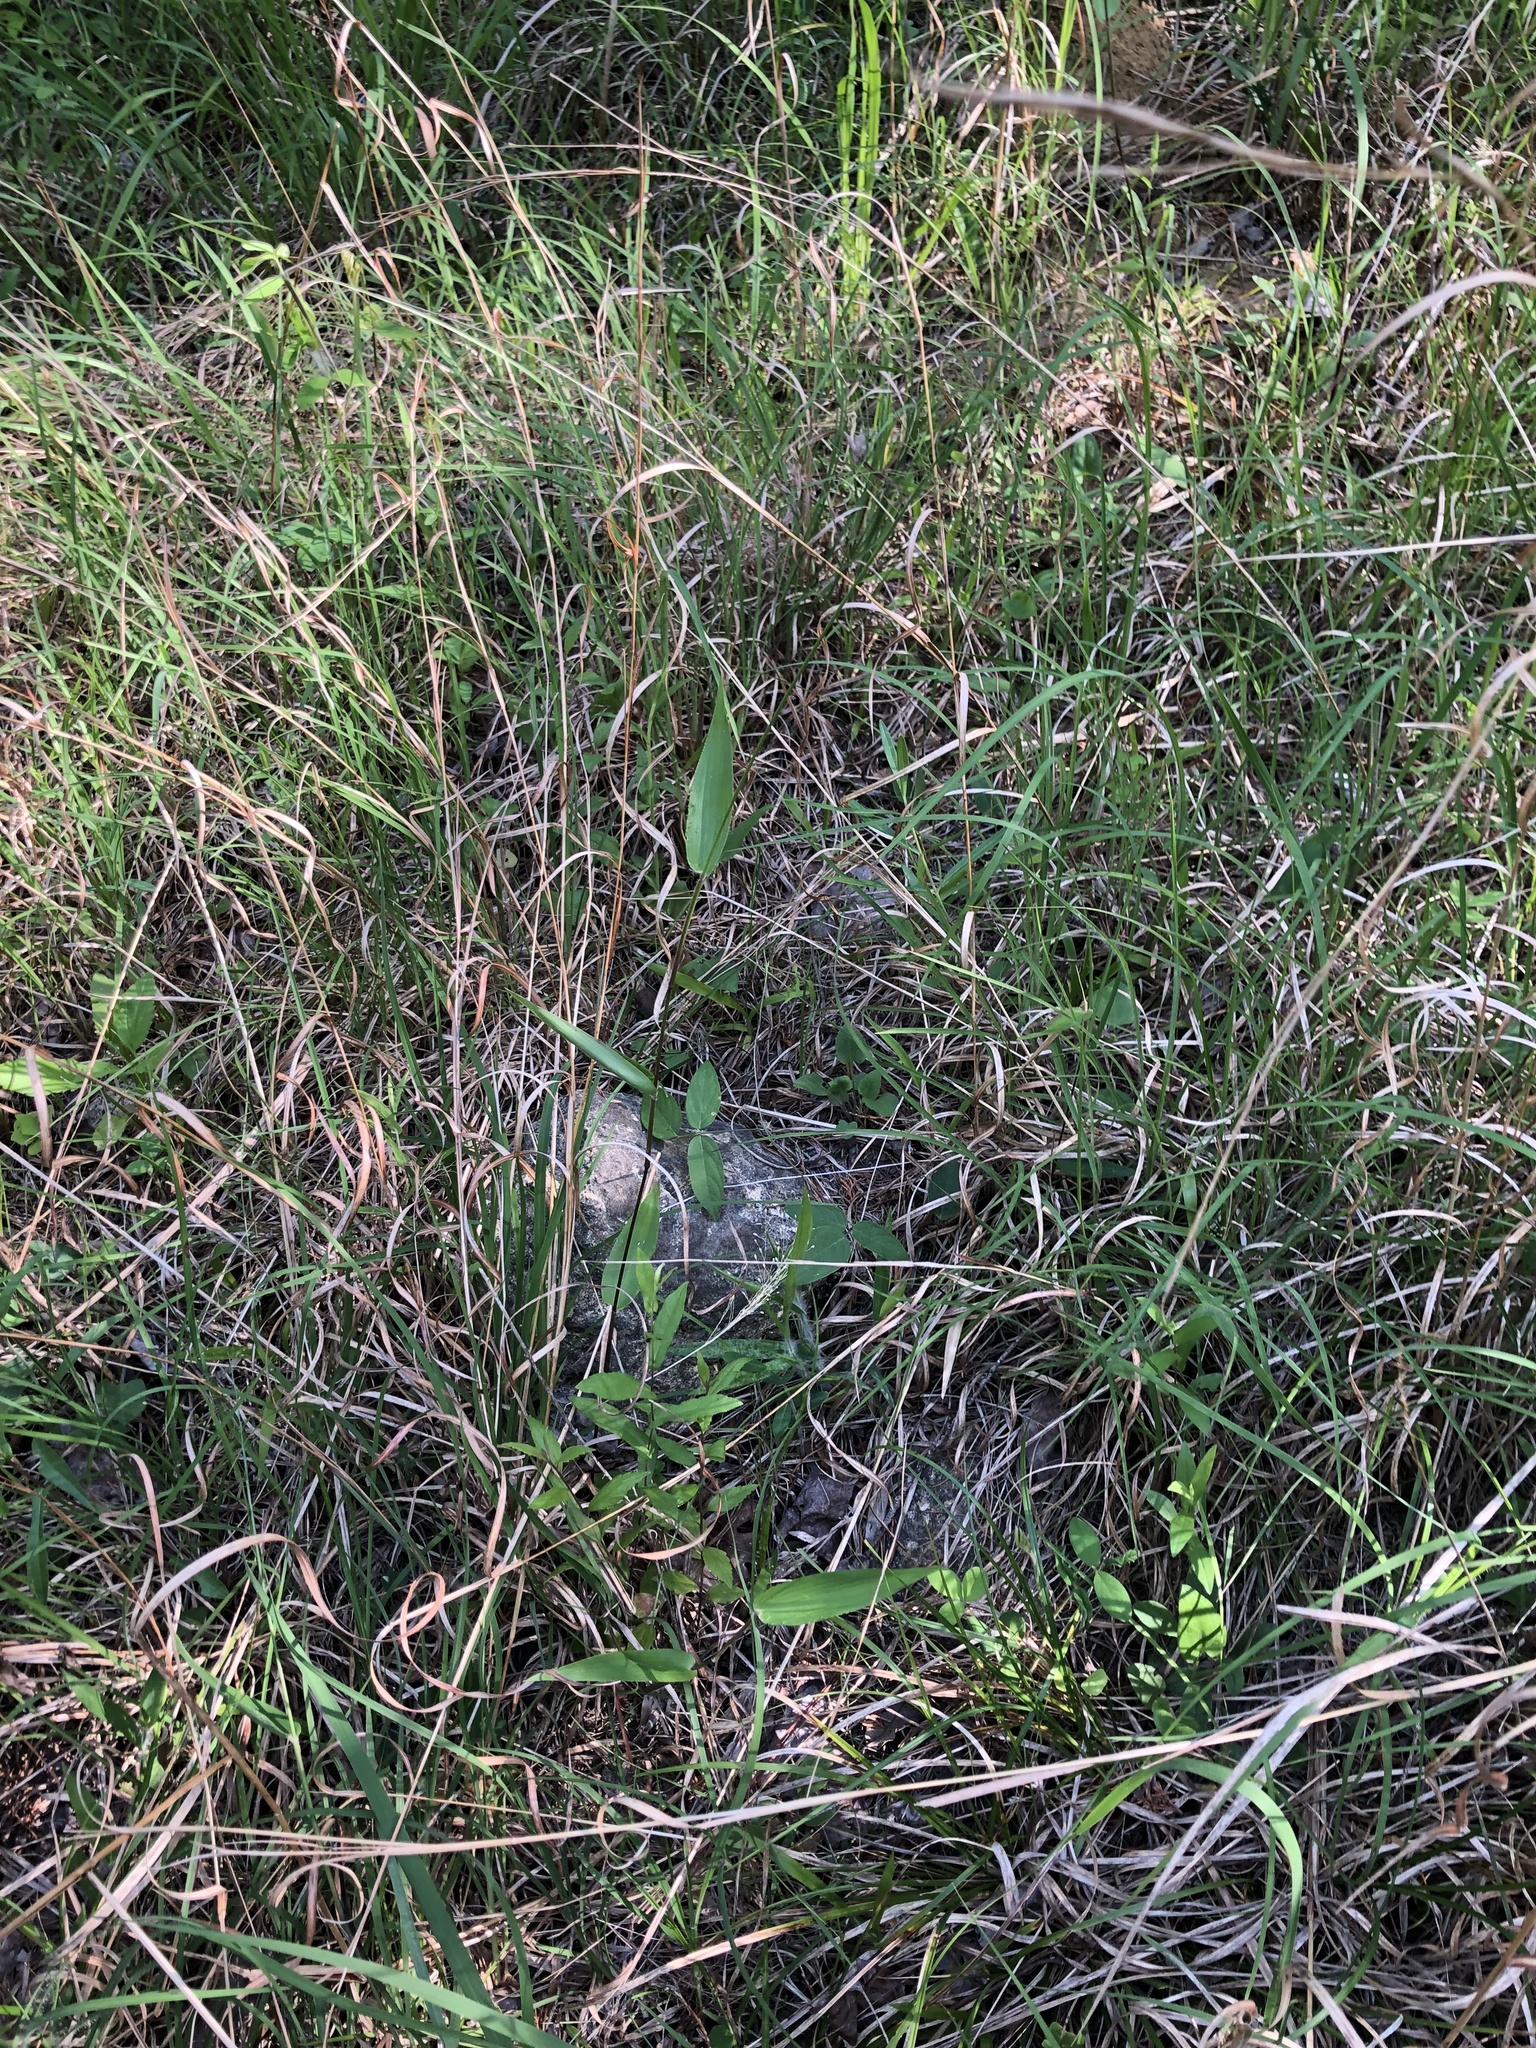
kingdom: Plantae
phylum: Tracheophyta
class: Magnoliopsida
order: Gentianales
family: Apocynaceae
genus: Asclepias
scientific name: Asclepias viridiflora
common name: Green comet milkweed
